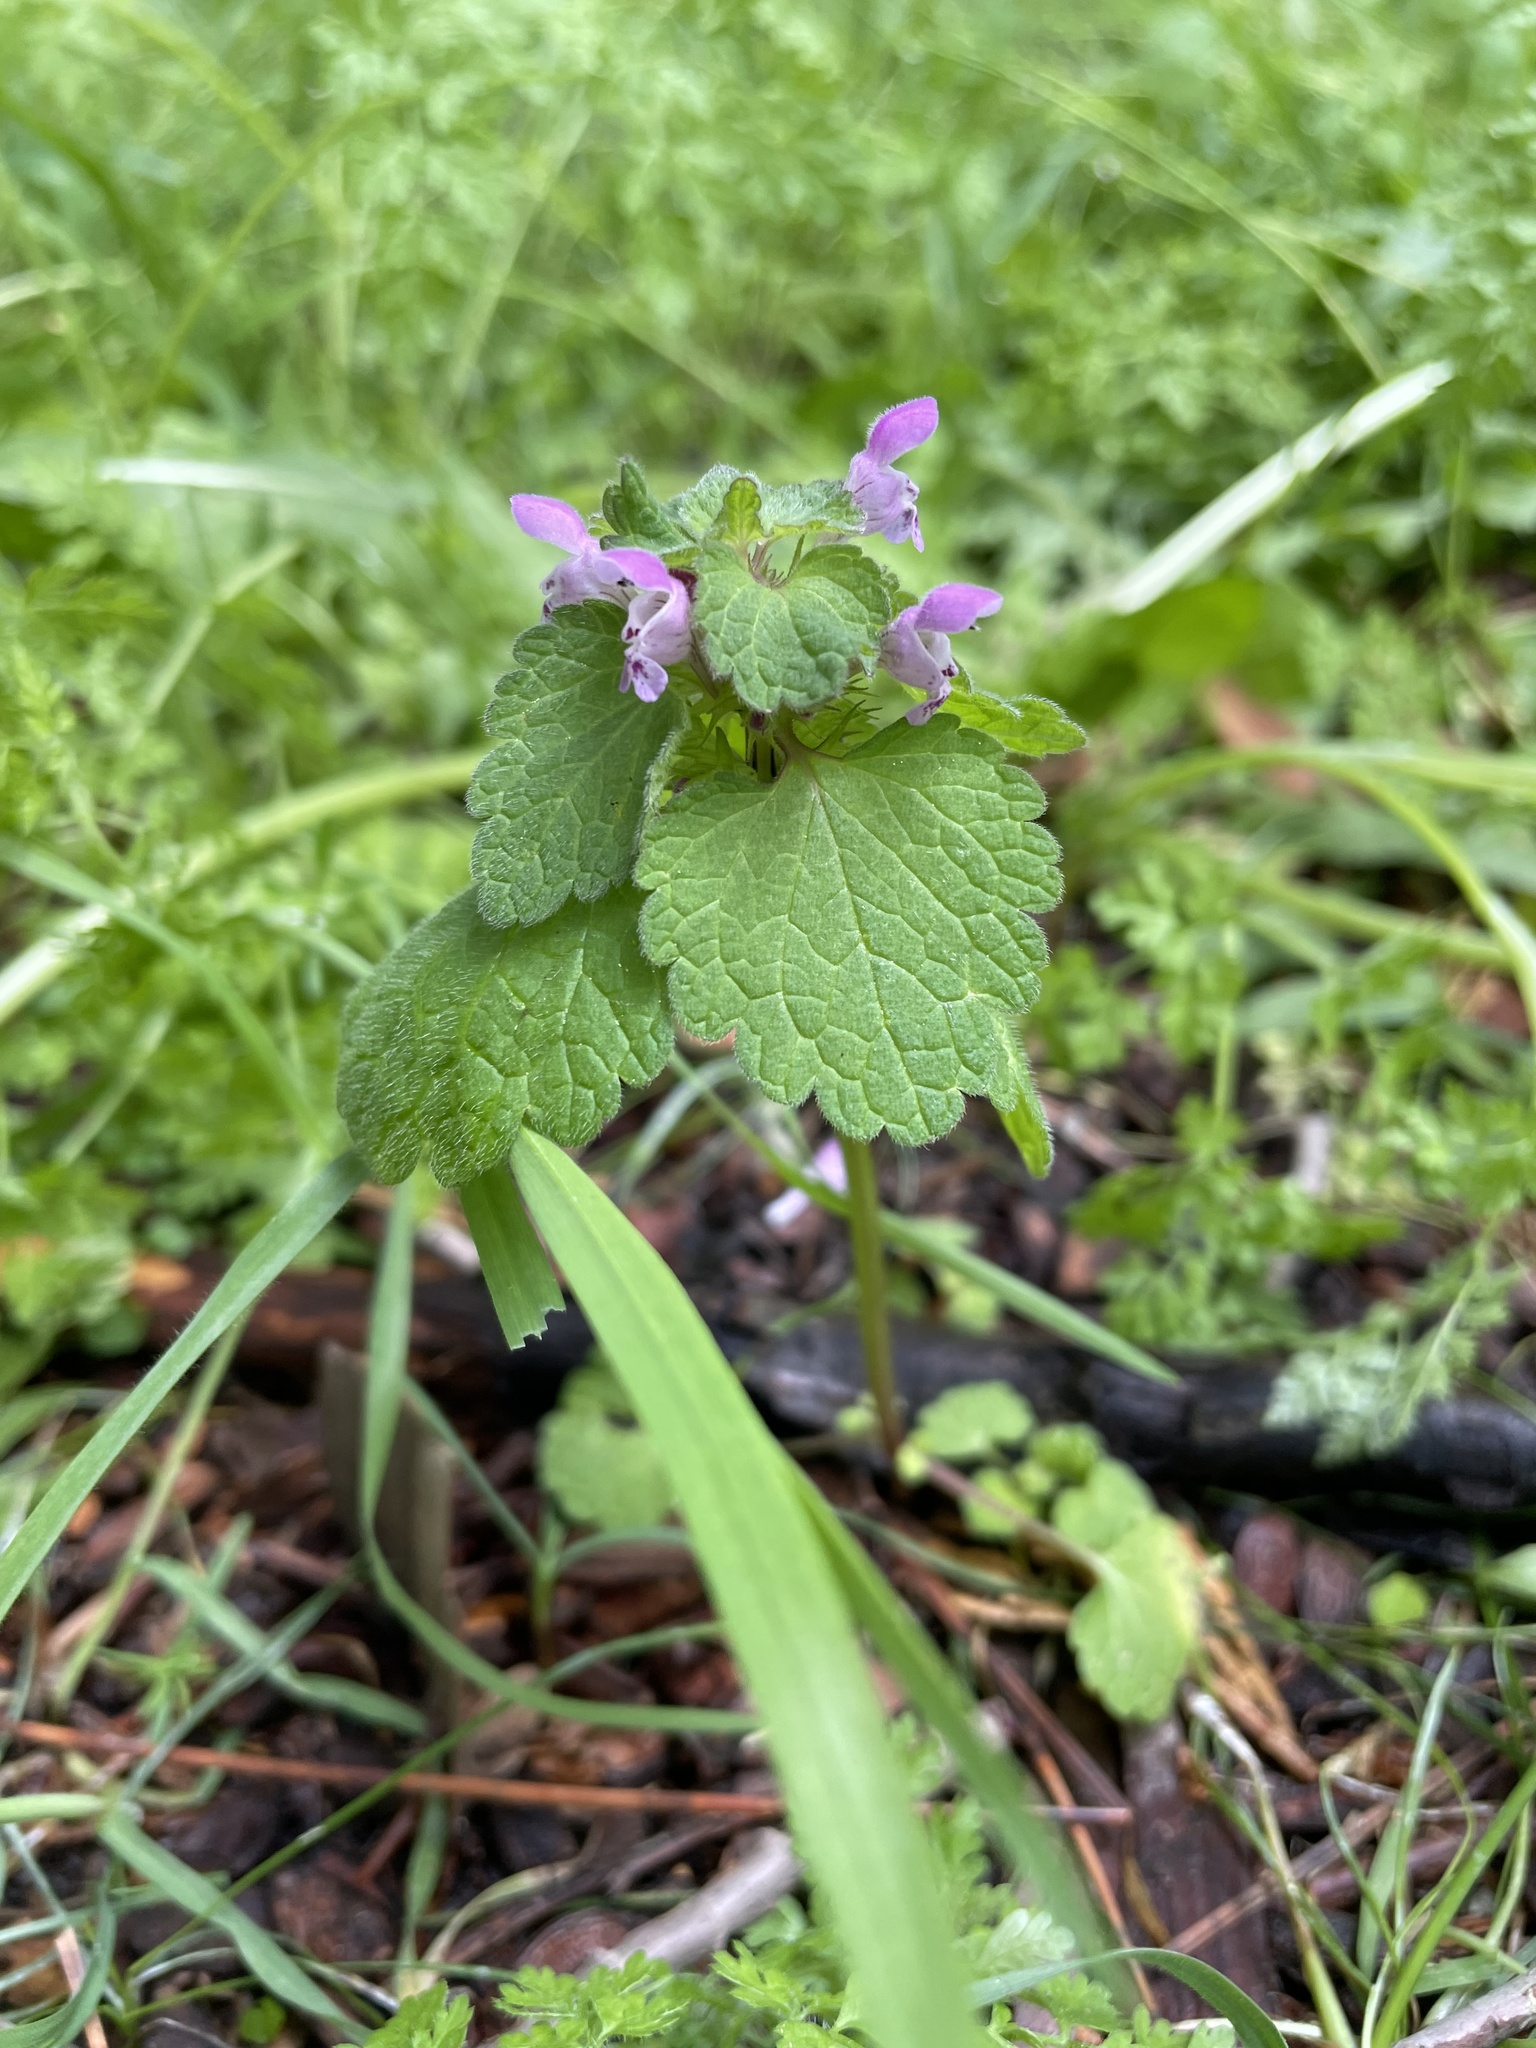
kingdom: Plantae
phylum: Tracheophyta
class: Magnoliopsida
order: Lamiales
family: Lamiaceae
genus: Lamium
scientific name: Lamium purpureum
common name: Red dead-nettle
